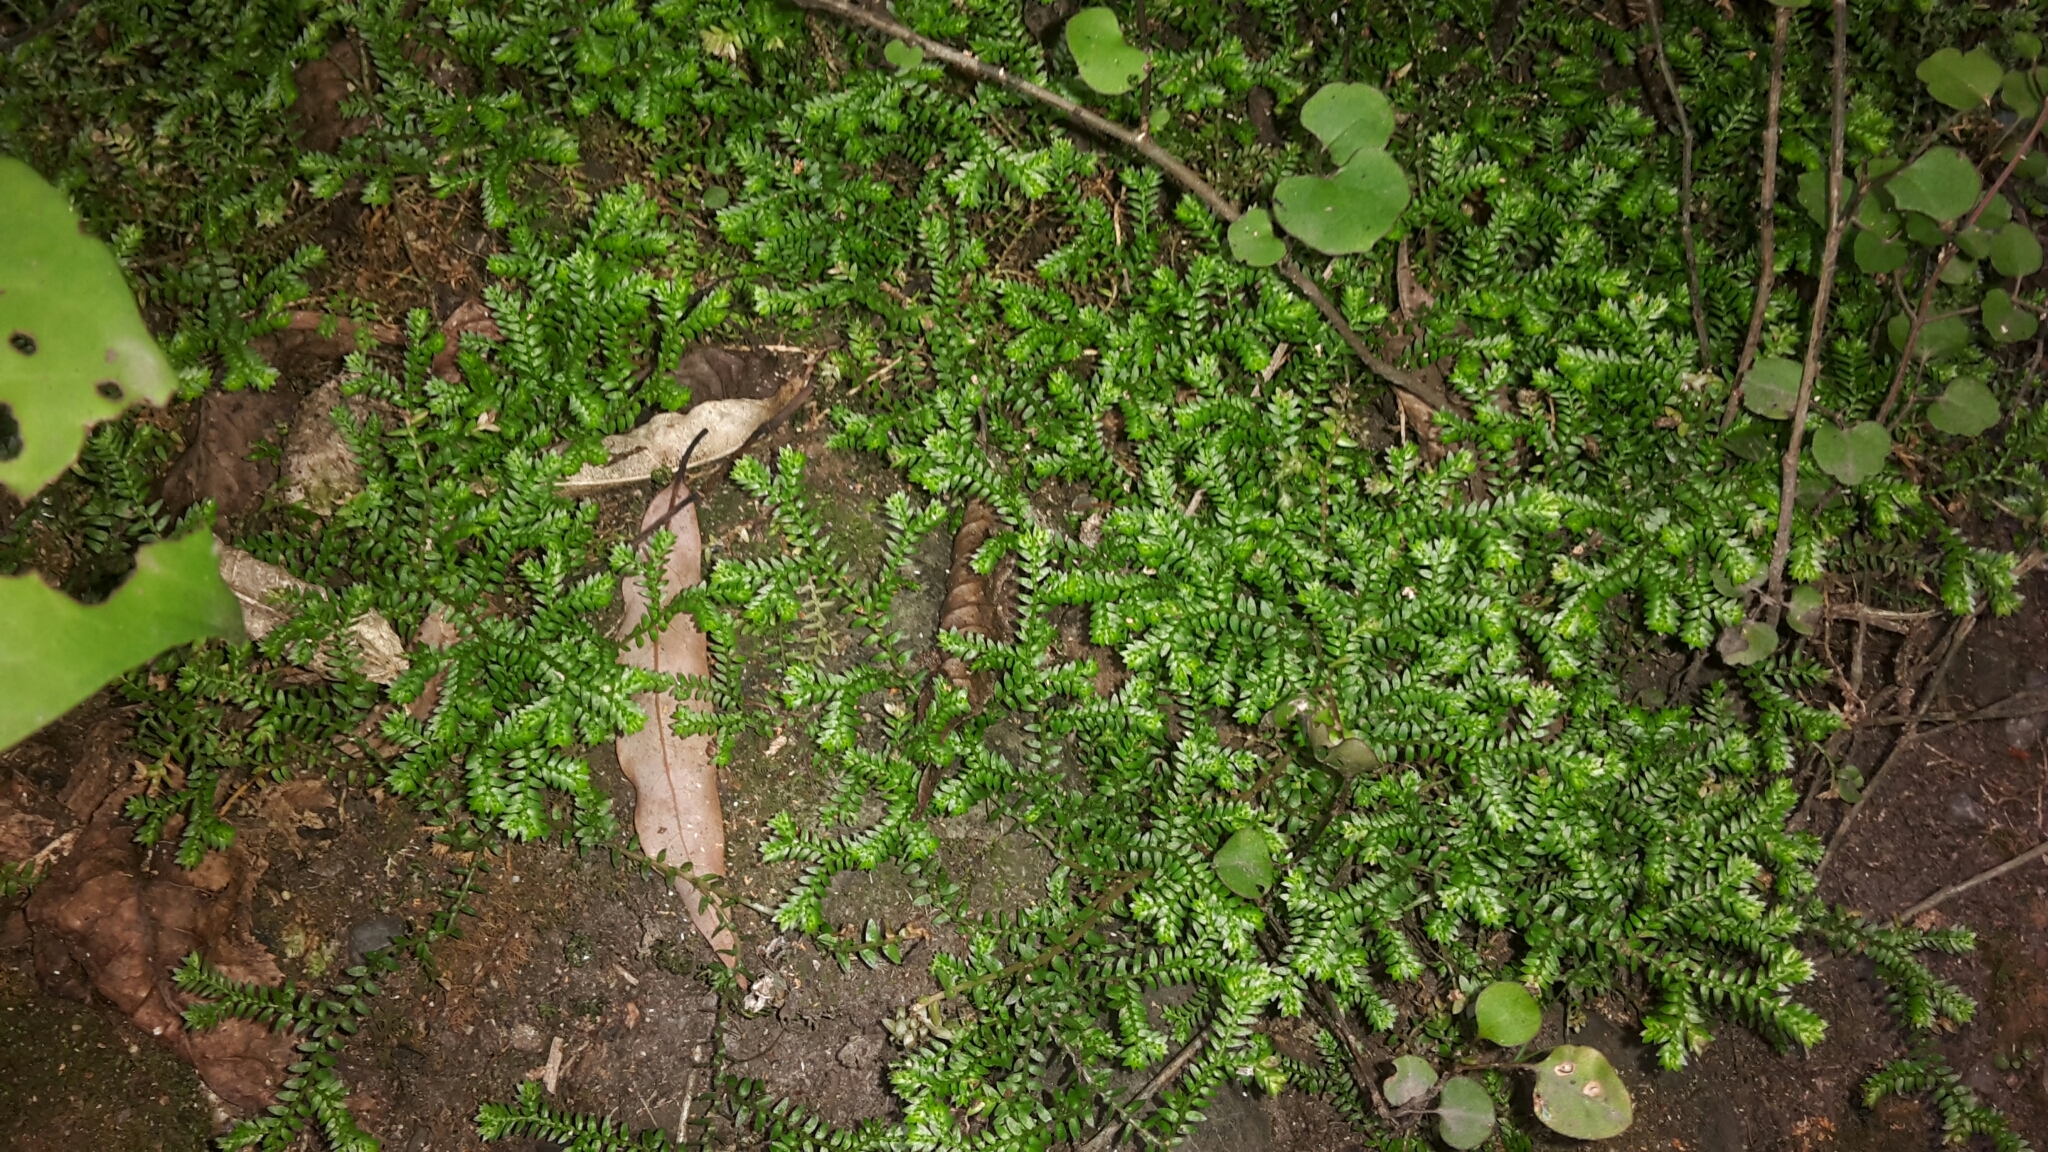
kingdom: Plantae
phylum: Tracheophyta
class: Lycopodiopsida
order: Selaginellales
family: Selaginellaceae
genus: Selaginella
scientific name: Selaginella kraussiana
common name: Krauss' spikemoss
